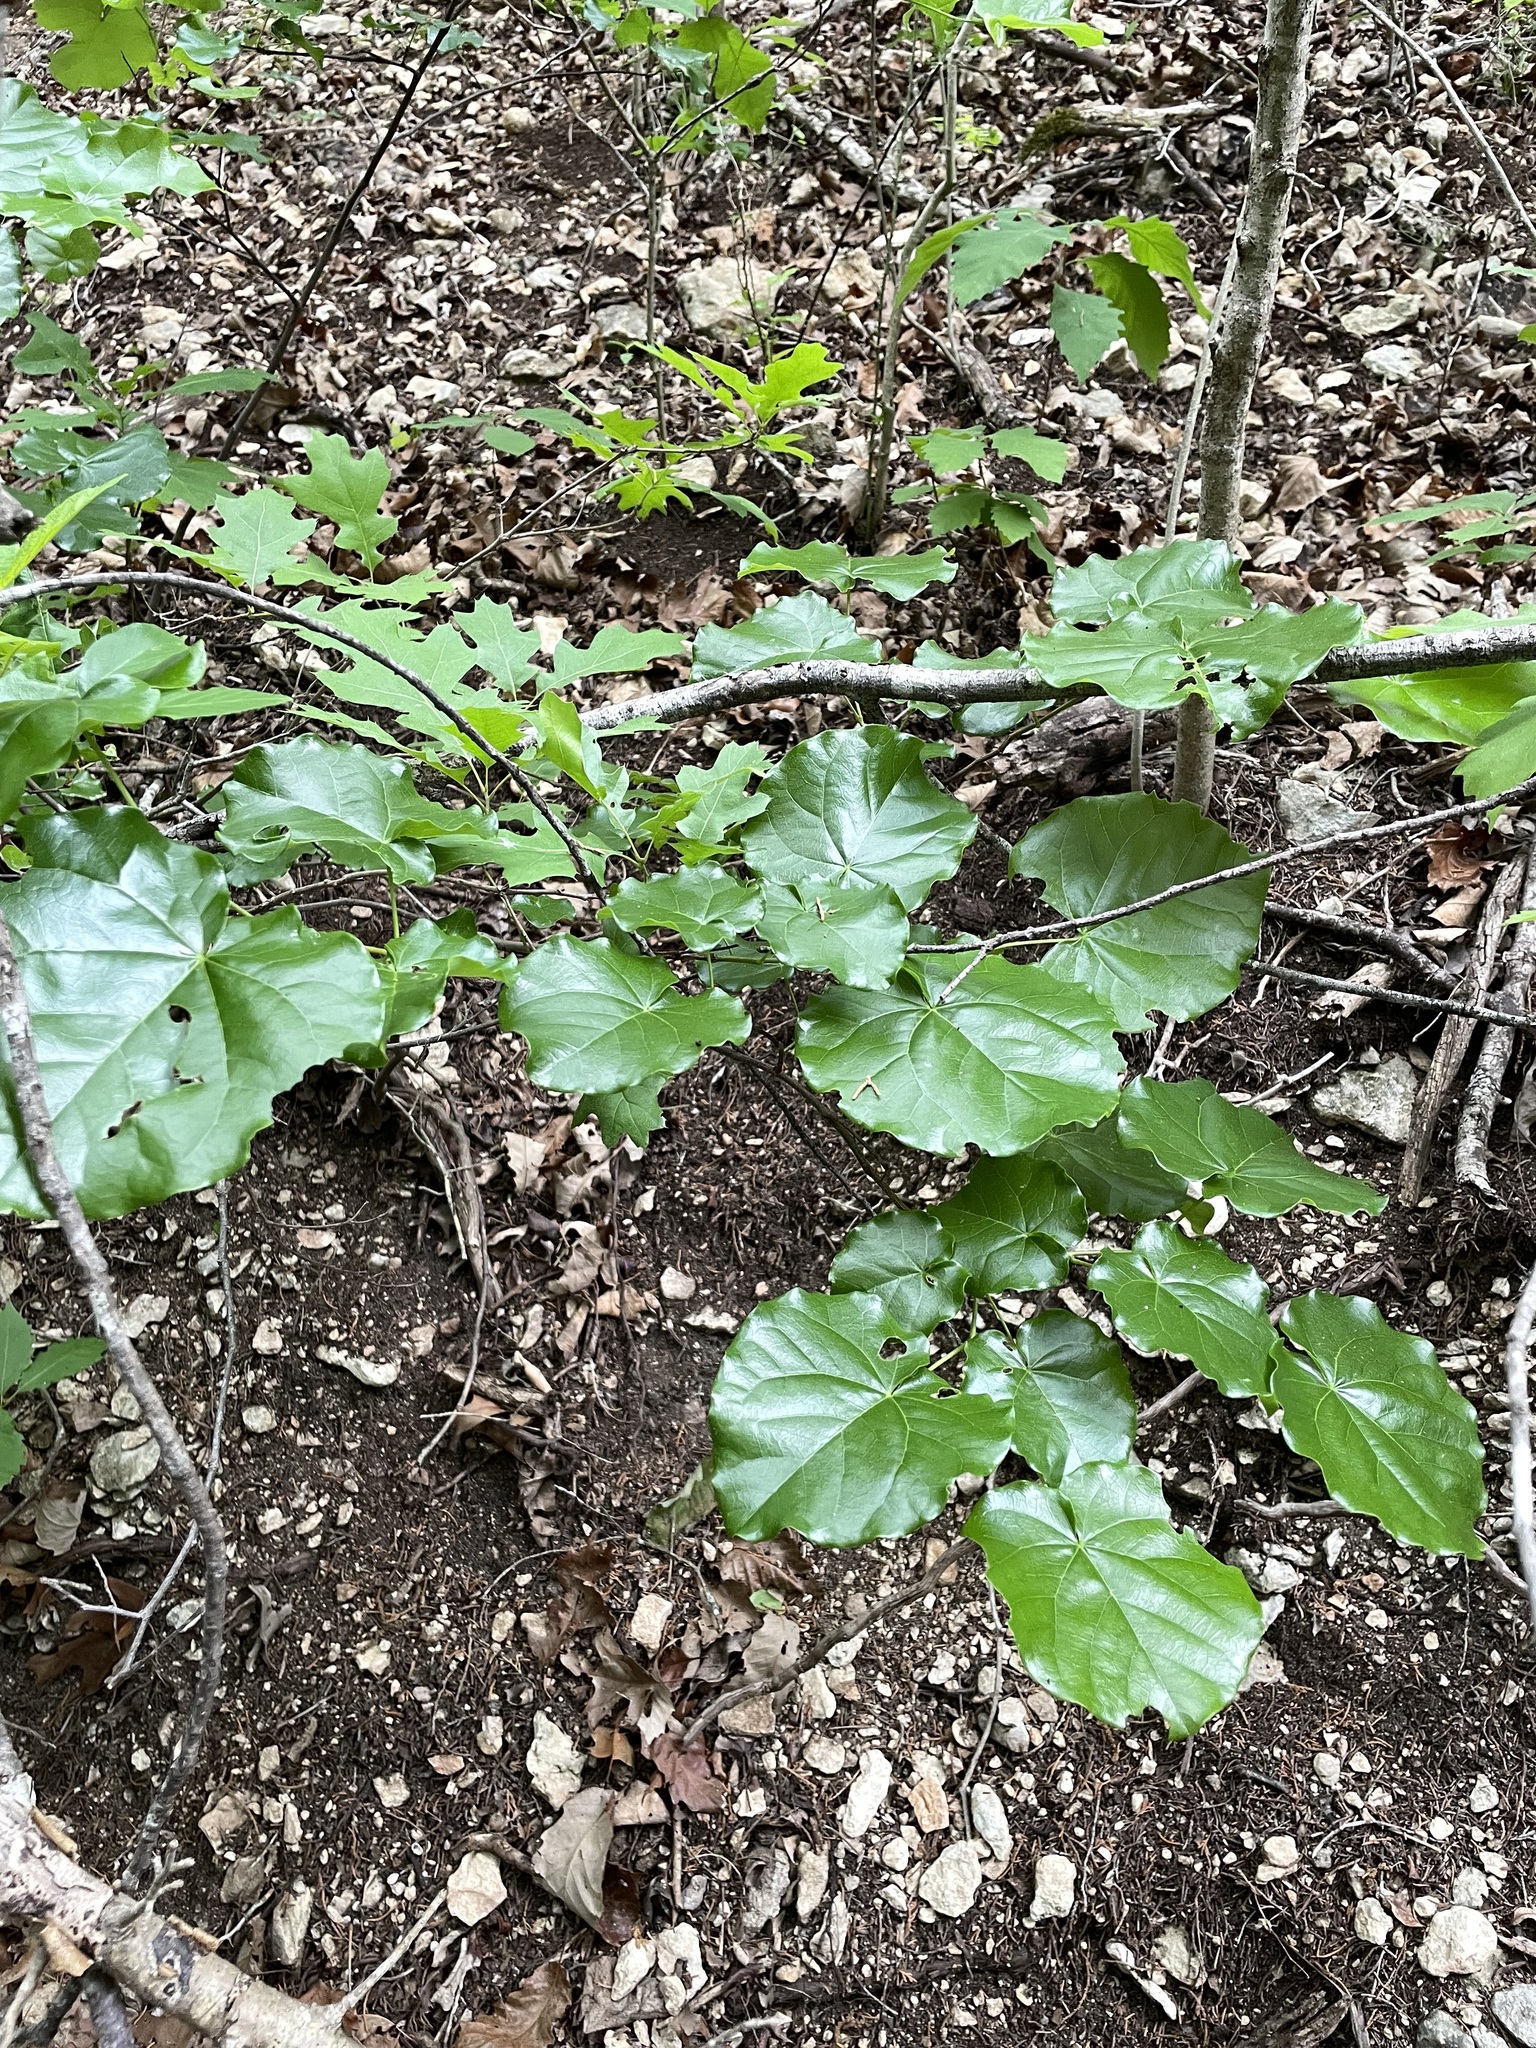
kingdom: Plantae
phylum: Tracheophyta
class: Magnoliopsida
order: Fabales
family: Fabaceae
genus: Cercis
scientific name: Cercis canadensis
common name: Eastern redbud
